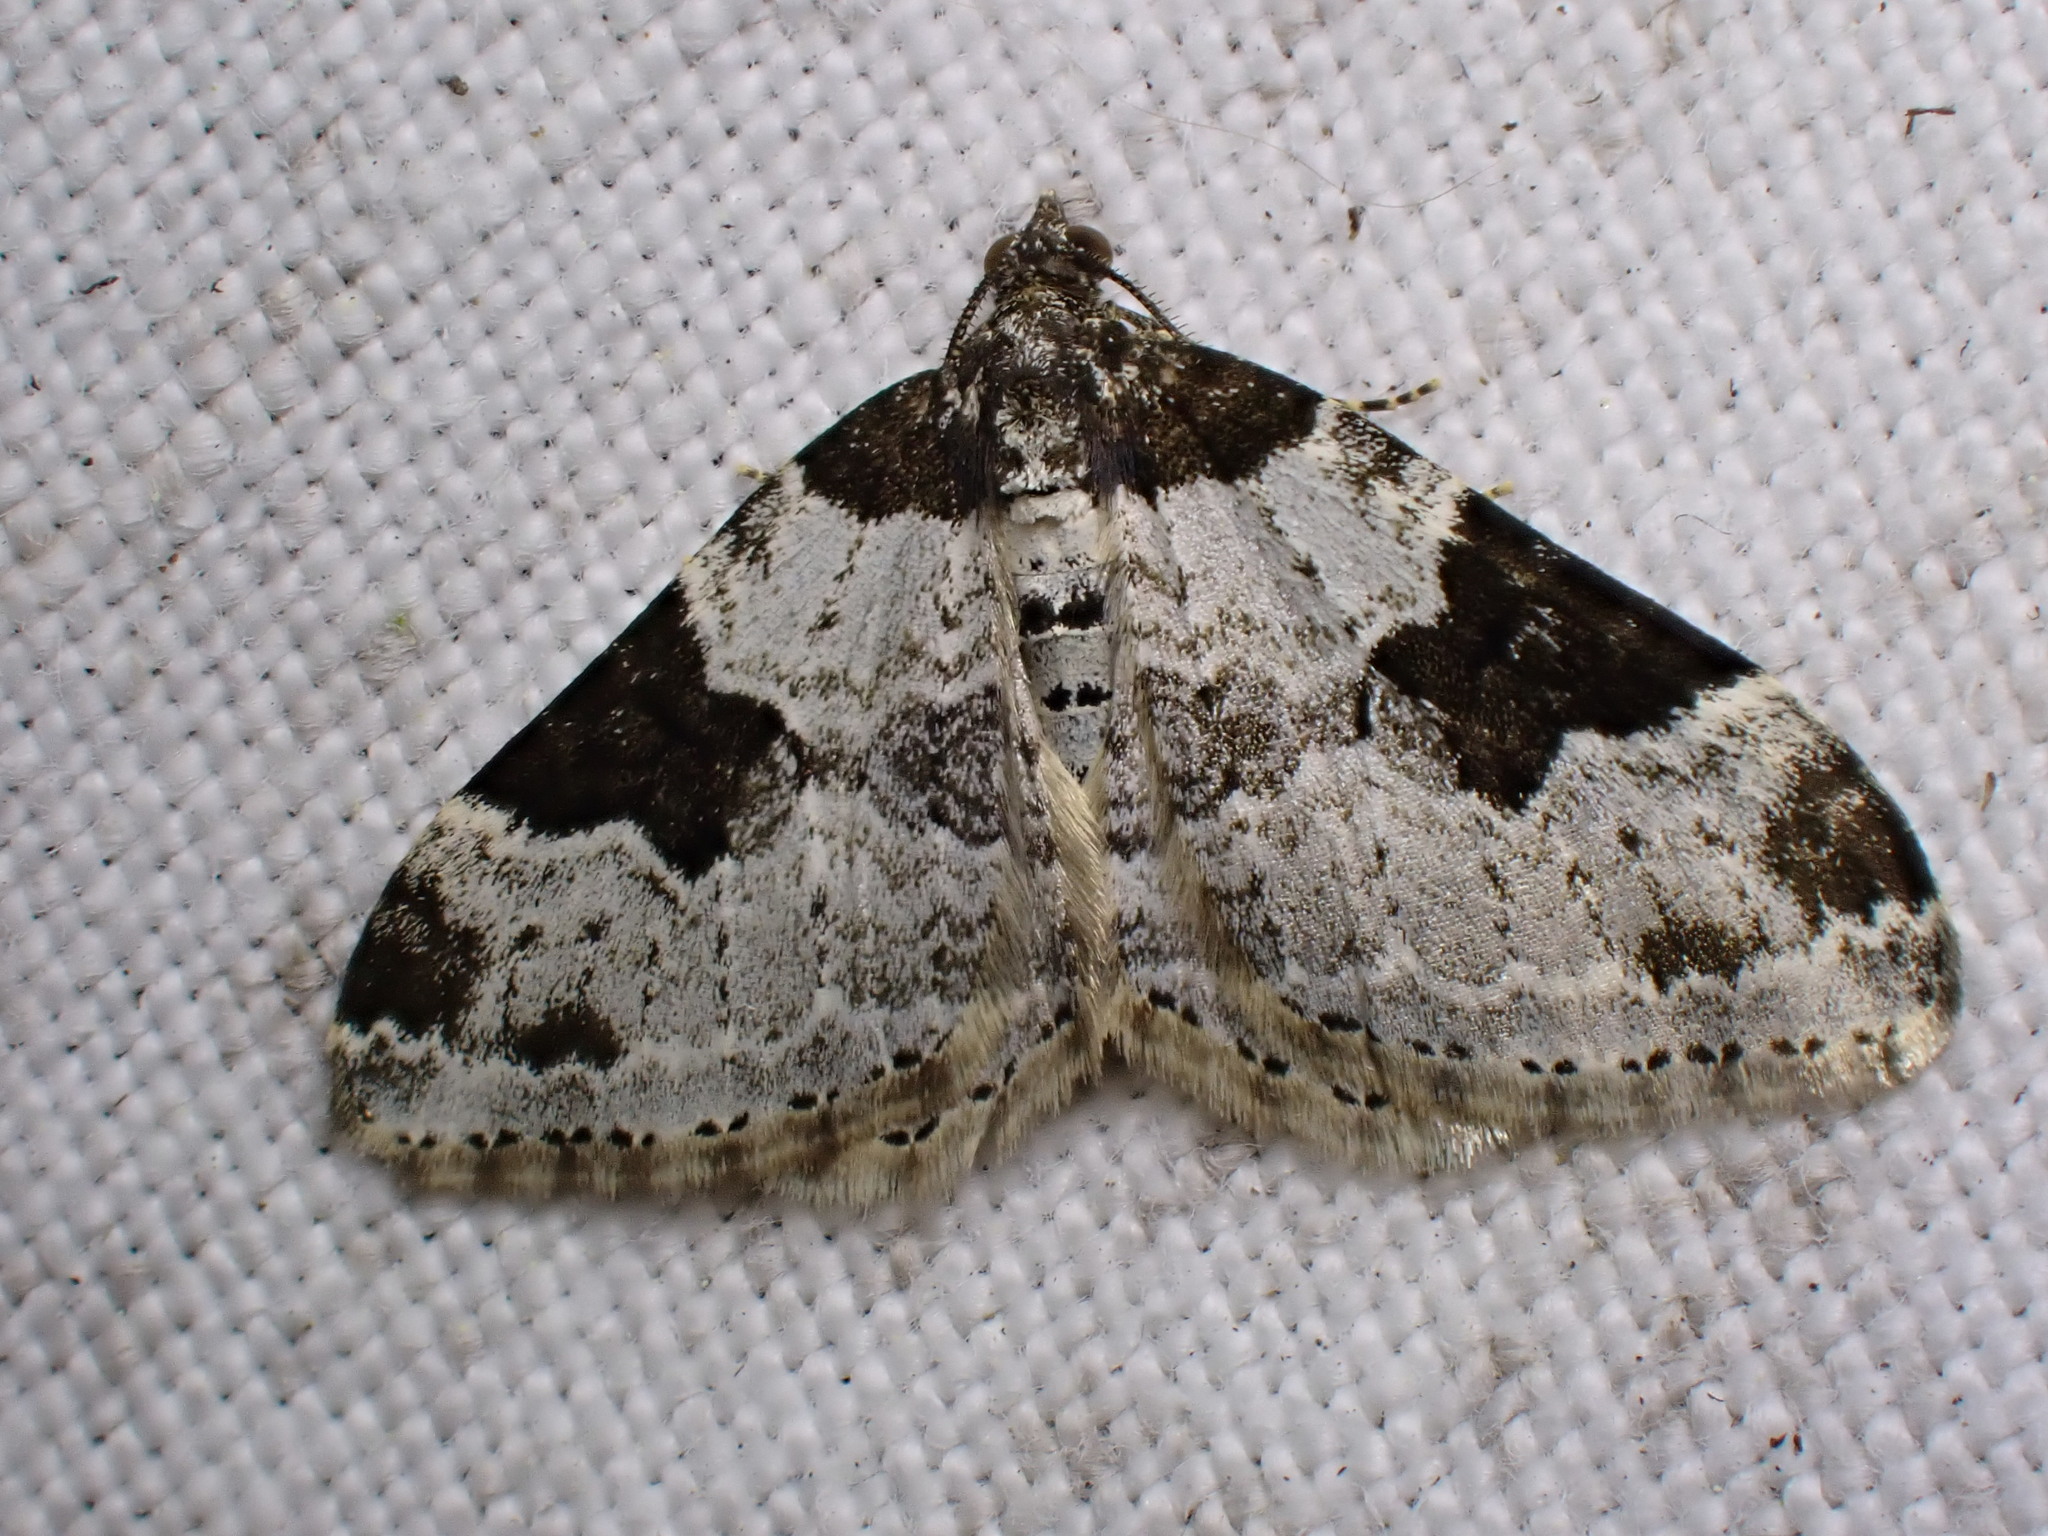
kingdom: Animalia
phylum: Arthropoda
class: Insecta
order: Lepidoptera
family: Geometridae
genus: Xanthorhoe
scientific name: Xanthorhoe fluctuata
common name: Garden carpet
